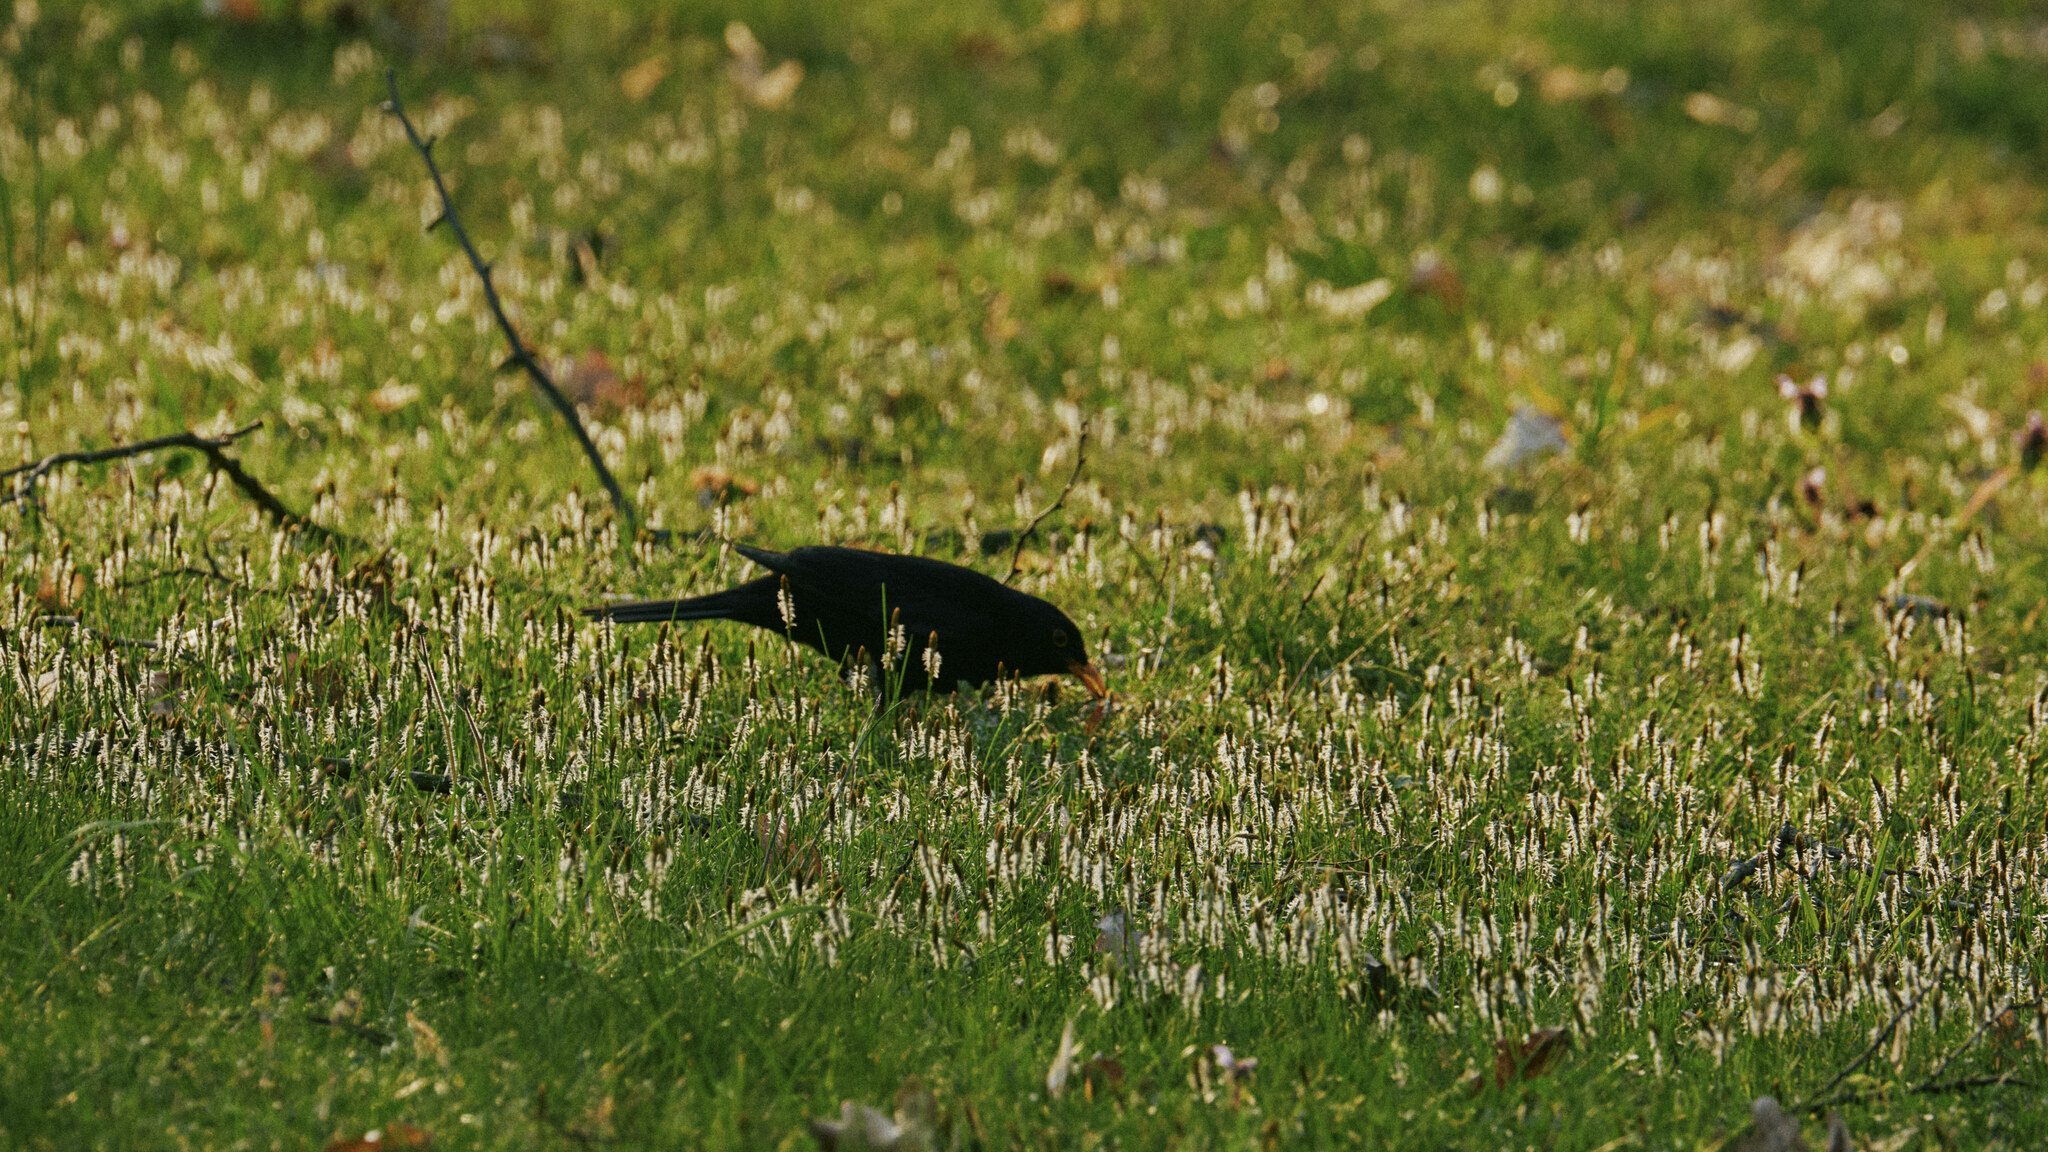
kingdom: Animalia
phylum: Chordata
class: Aves
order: Passeriformes
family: Turdidae
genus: Turdus
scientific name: Turdus merula
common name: Common blackbird
